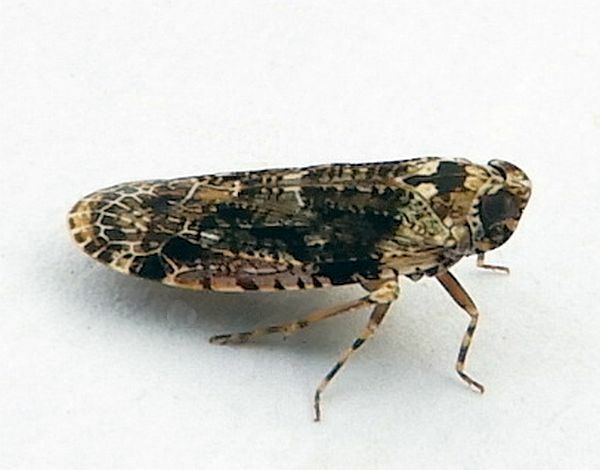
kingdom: Animalia
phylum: Arthropoda
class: Insecta
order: Hemiptera
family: Achilidae
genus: Catonia
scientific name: Catonia nava
